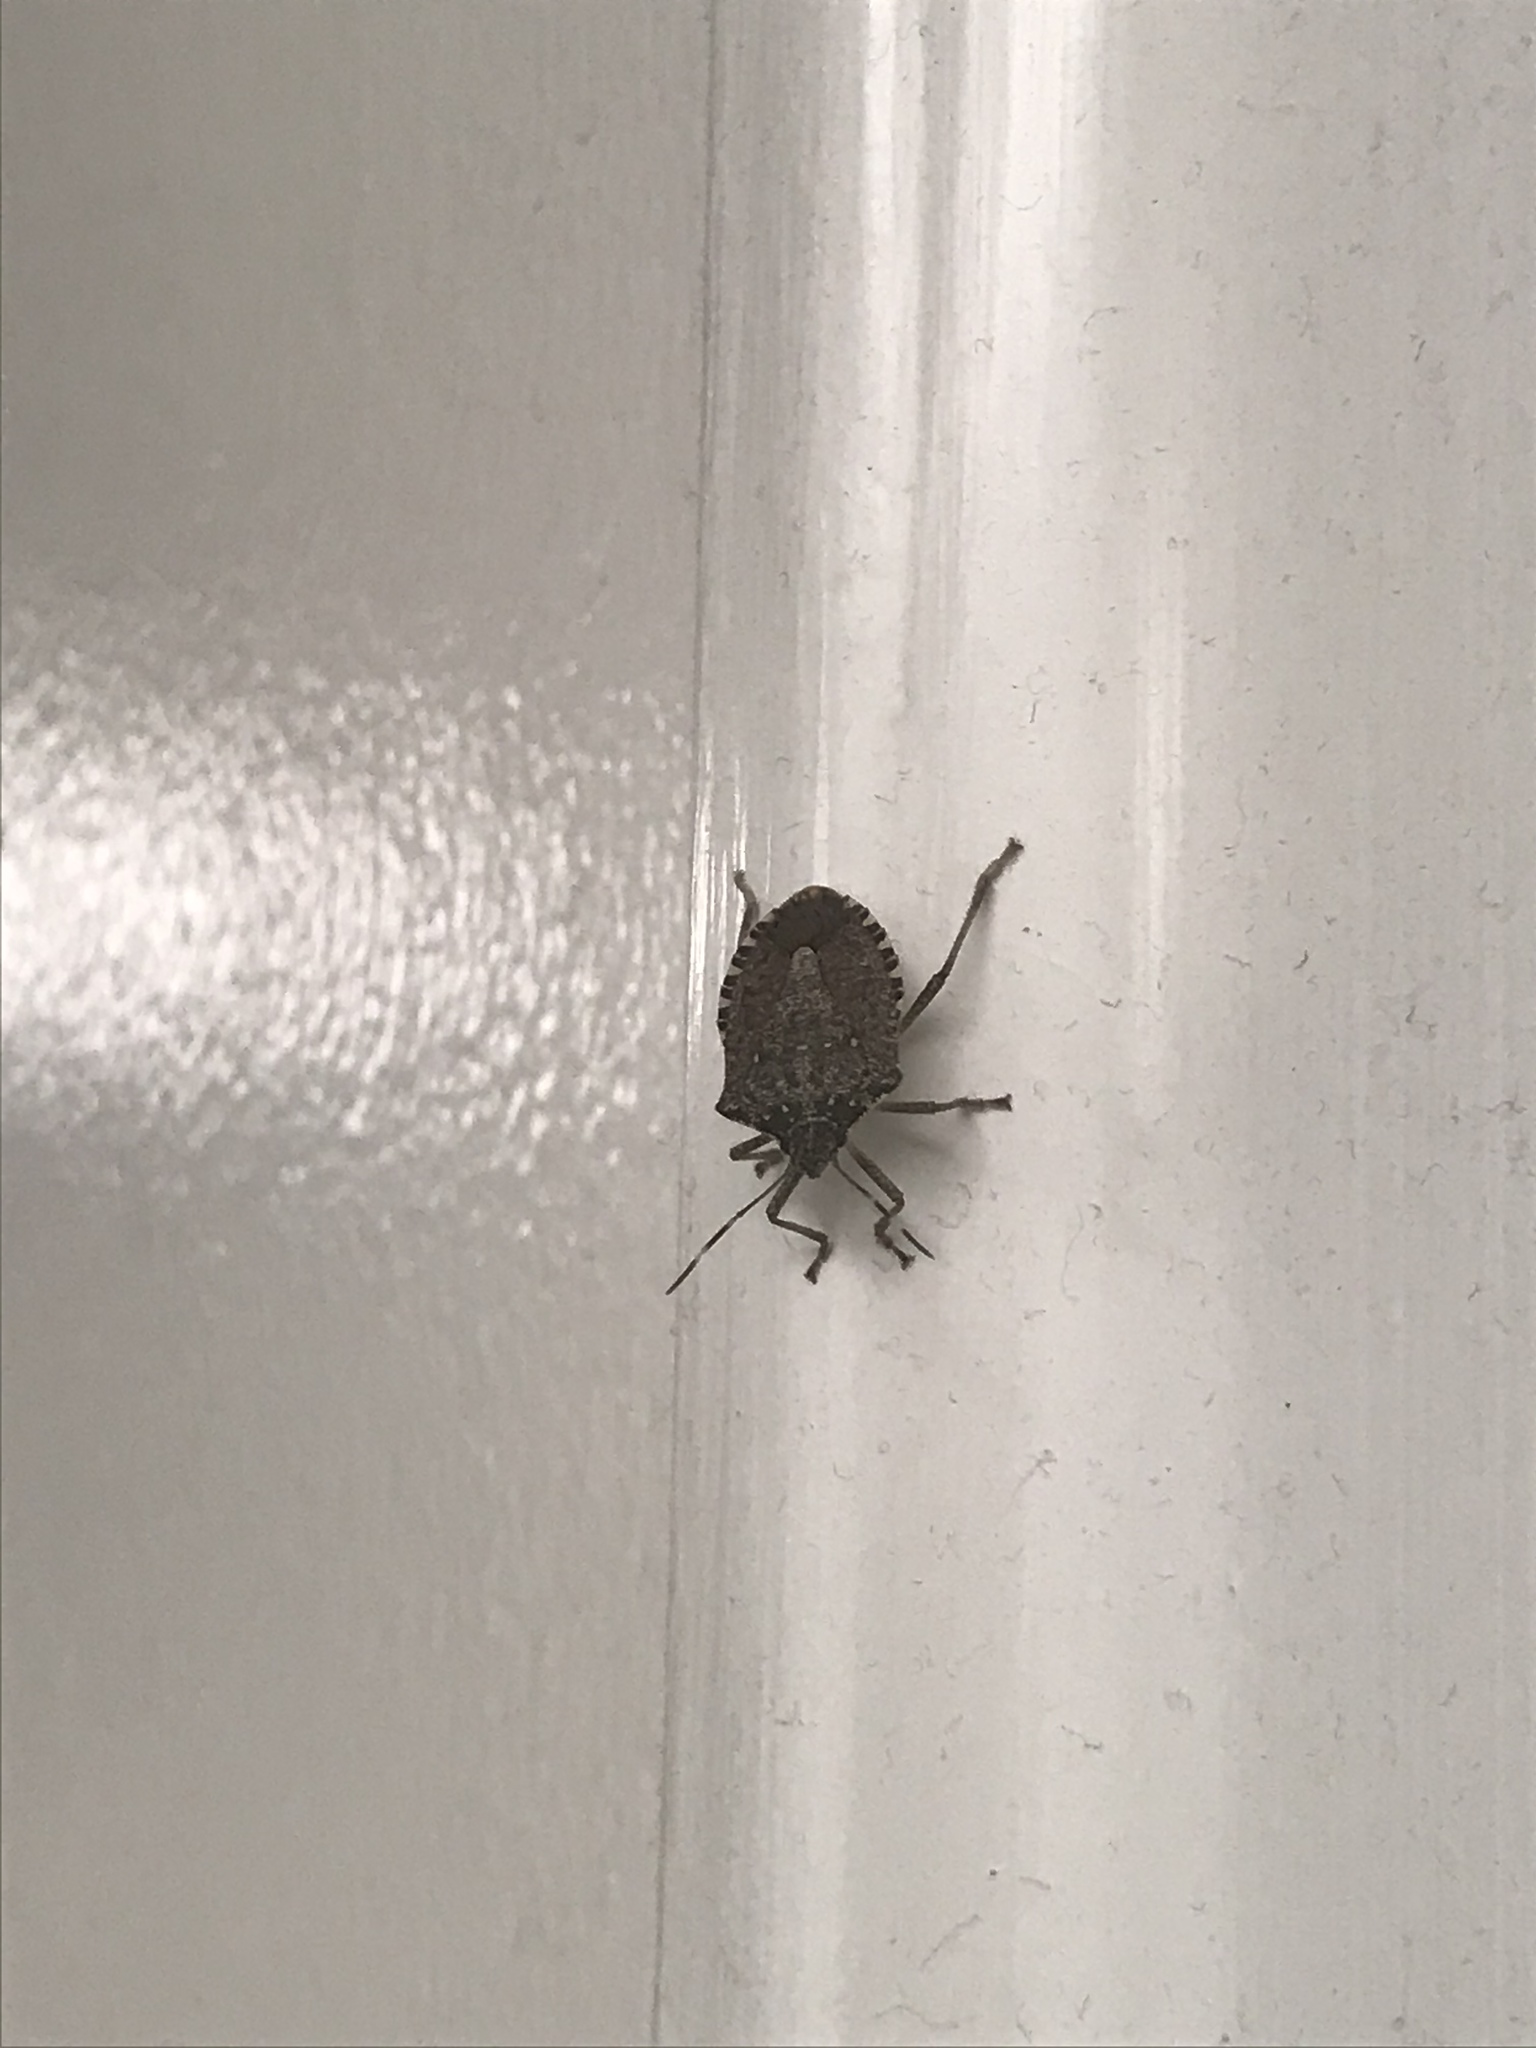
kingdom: Animalia
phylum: Arthropoda
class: Insecta
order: Hemiptera
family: Pentatomidae
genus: Halyomorpha
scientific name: Halyomorpha halys
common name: Brown marmorated stink bug
